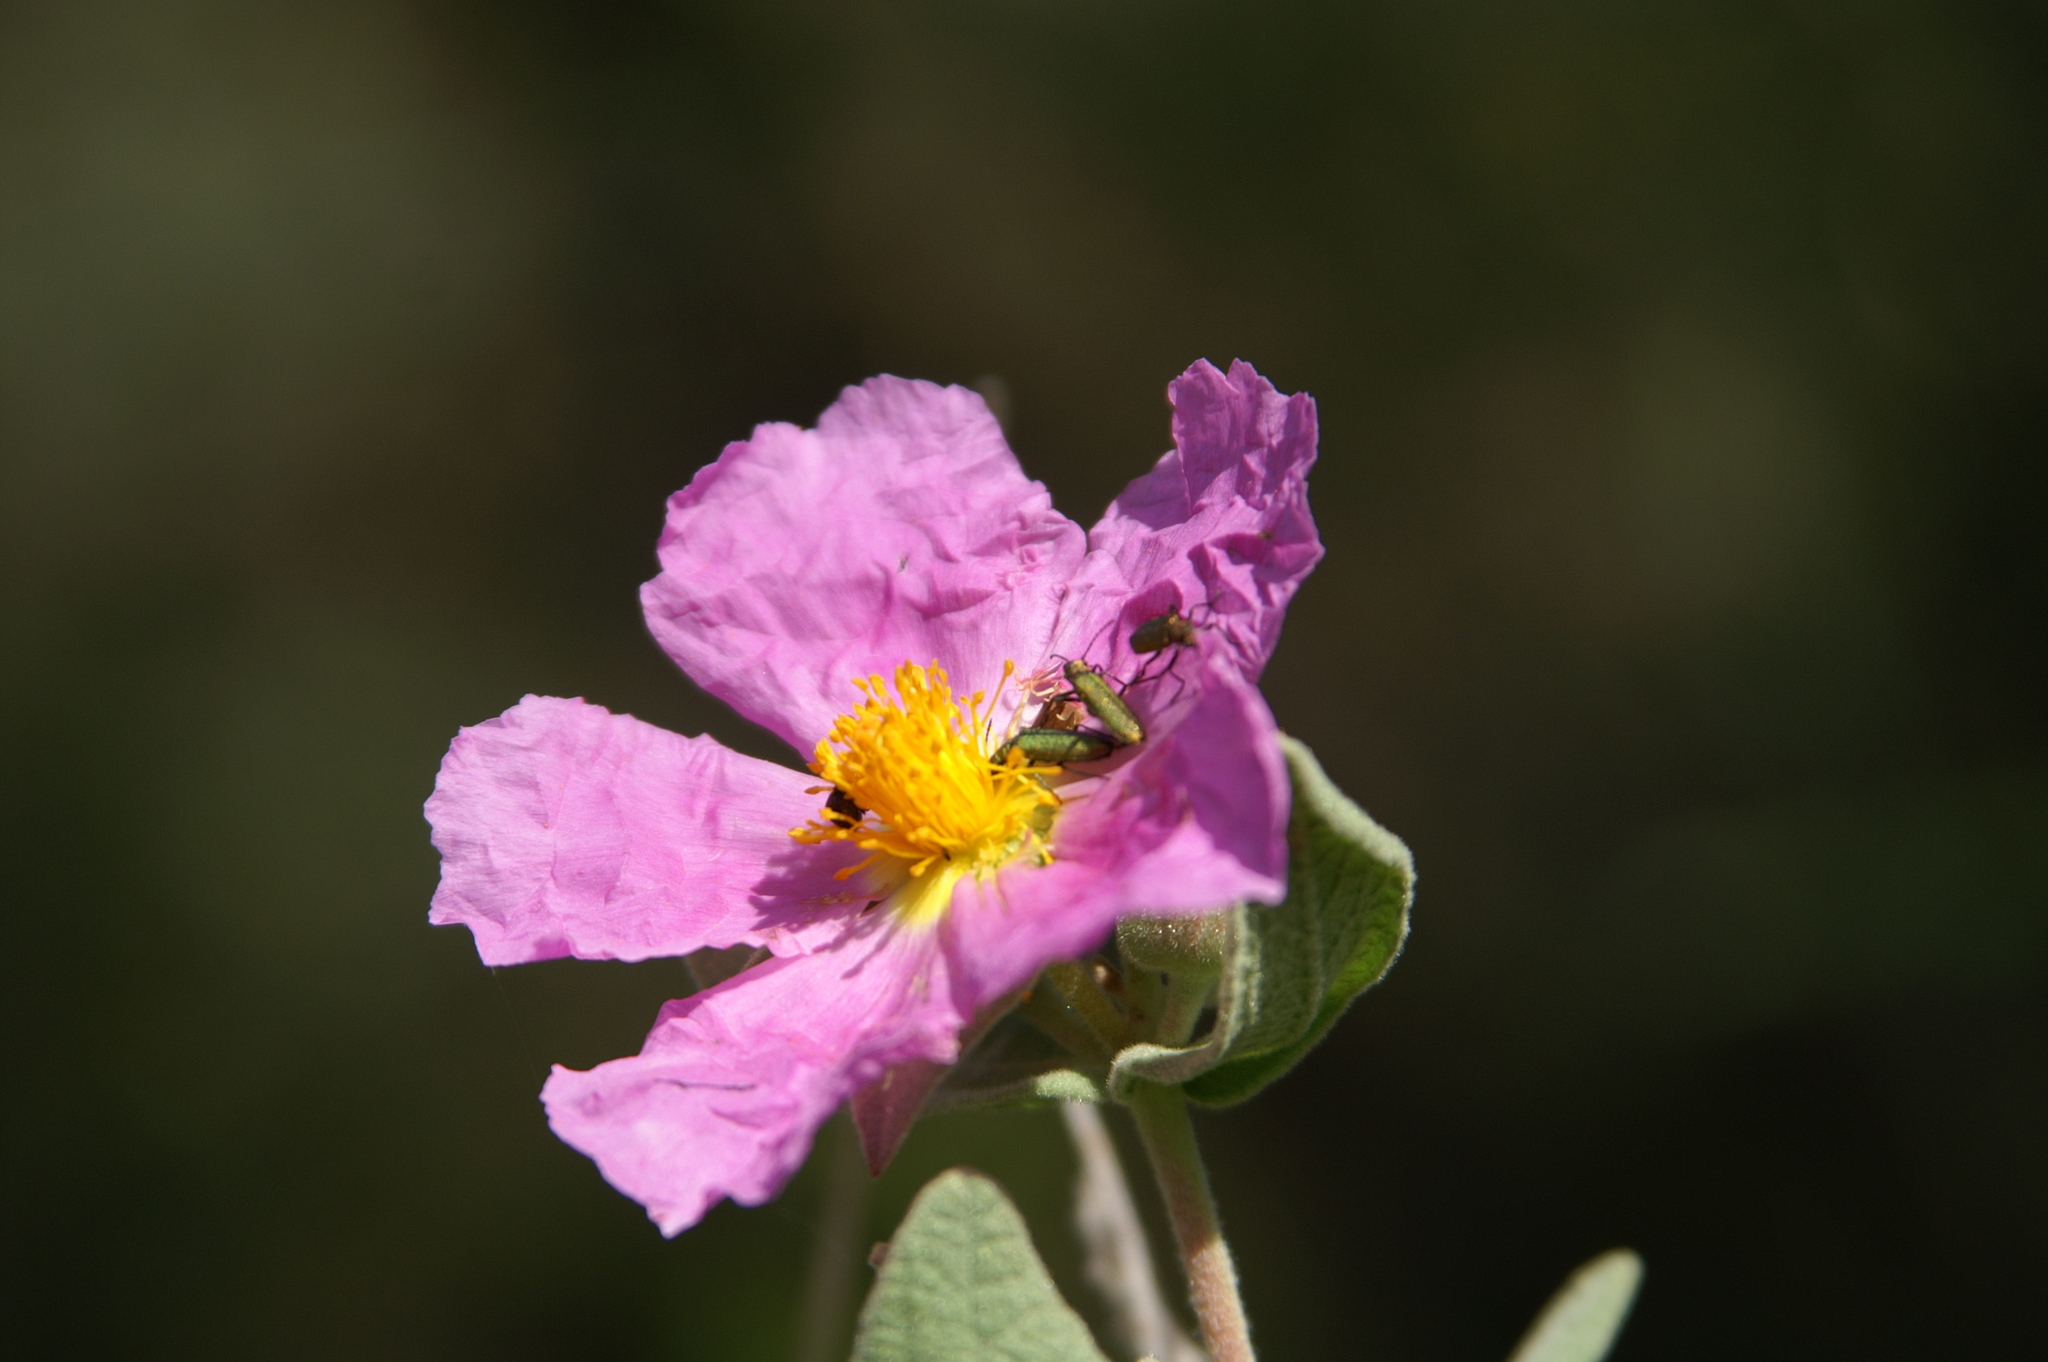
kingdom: Plantae
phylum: Tracheophyta
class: Magnoliopsida
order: Malvales
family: Cistaceae
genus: Cistus
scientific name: Cistus albidus
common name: White-leaf rock-rose
